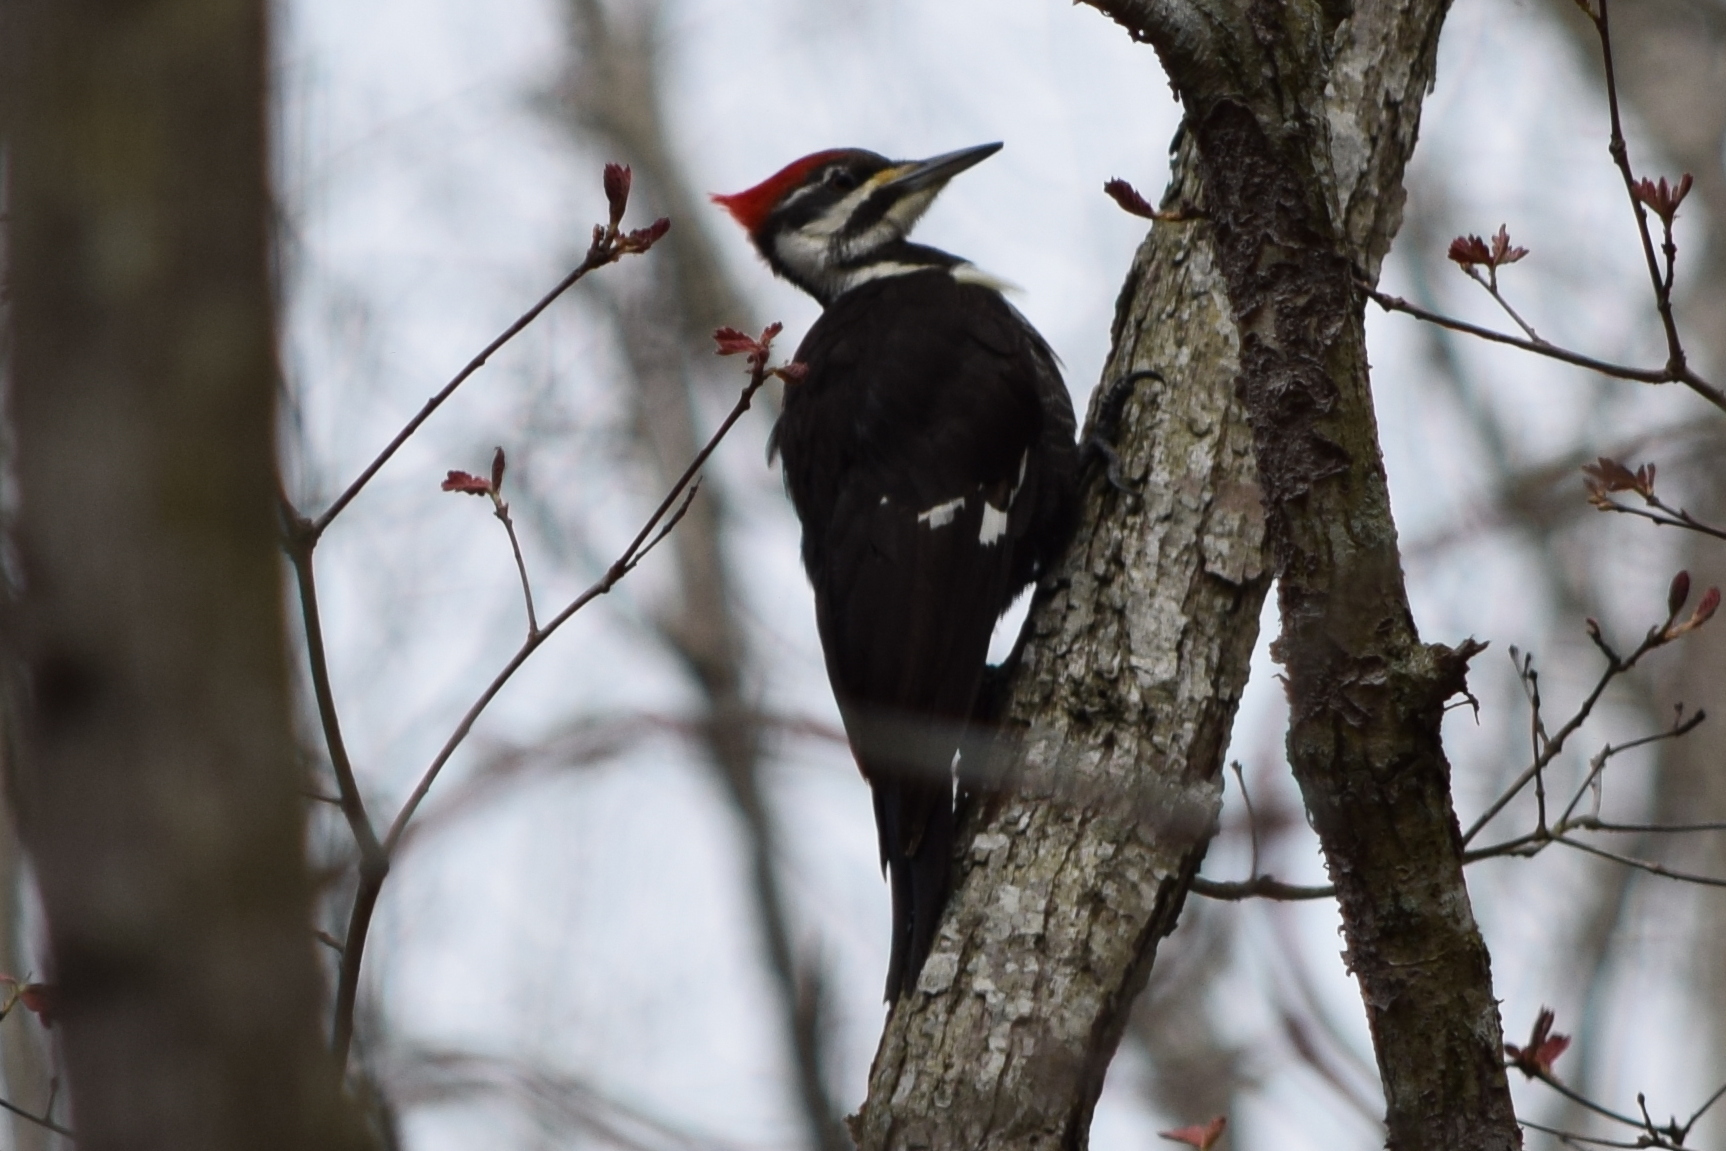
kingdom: Animalia
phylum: Chordata
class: Aves
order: Piciformes
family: Picidae
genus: Dryocopus
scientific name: Dryocopus pileatus
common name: Pileated woodpecker
